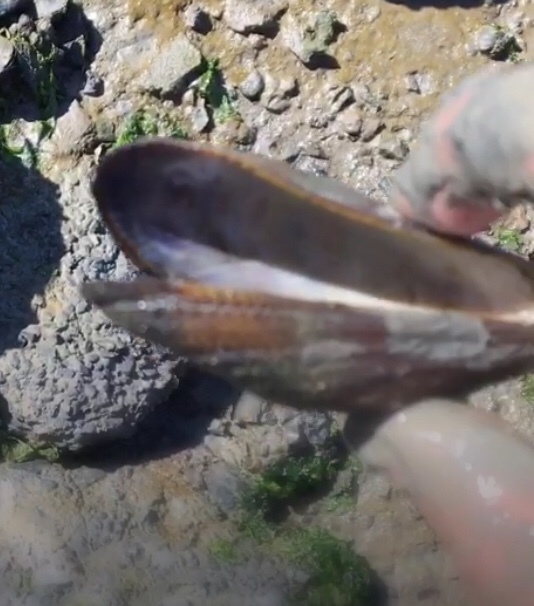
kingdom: Animalia
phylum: Mollusca
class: Bivalvia
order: Mytilida
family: Mytilidae
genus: Geukensia
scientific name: Geukensia demissa
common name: Ribbed mussel
